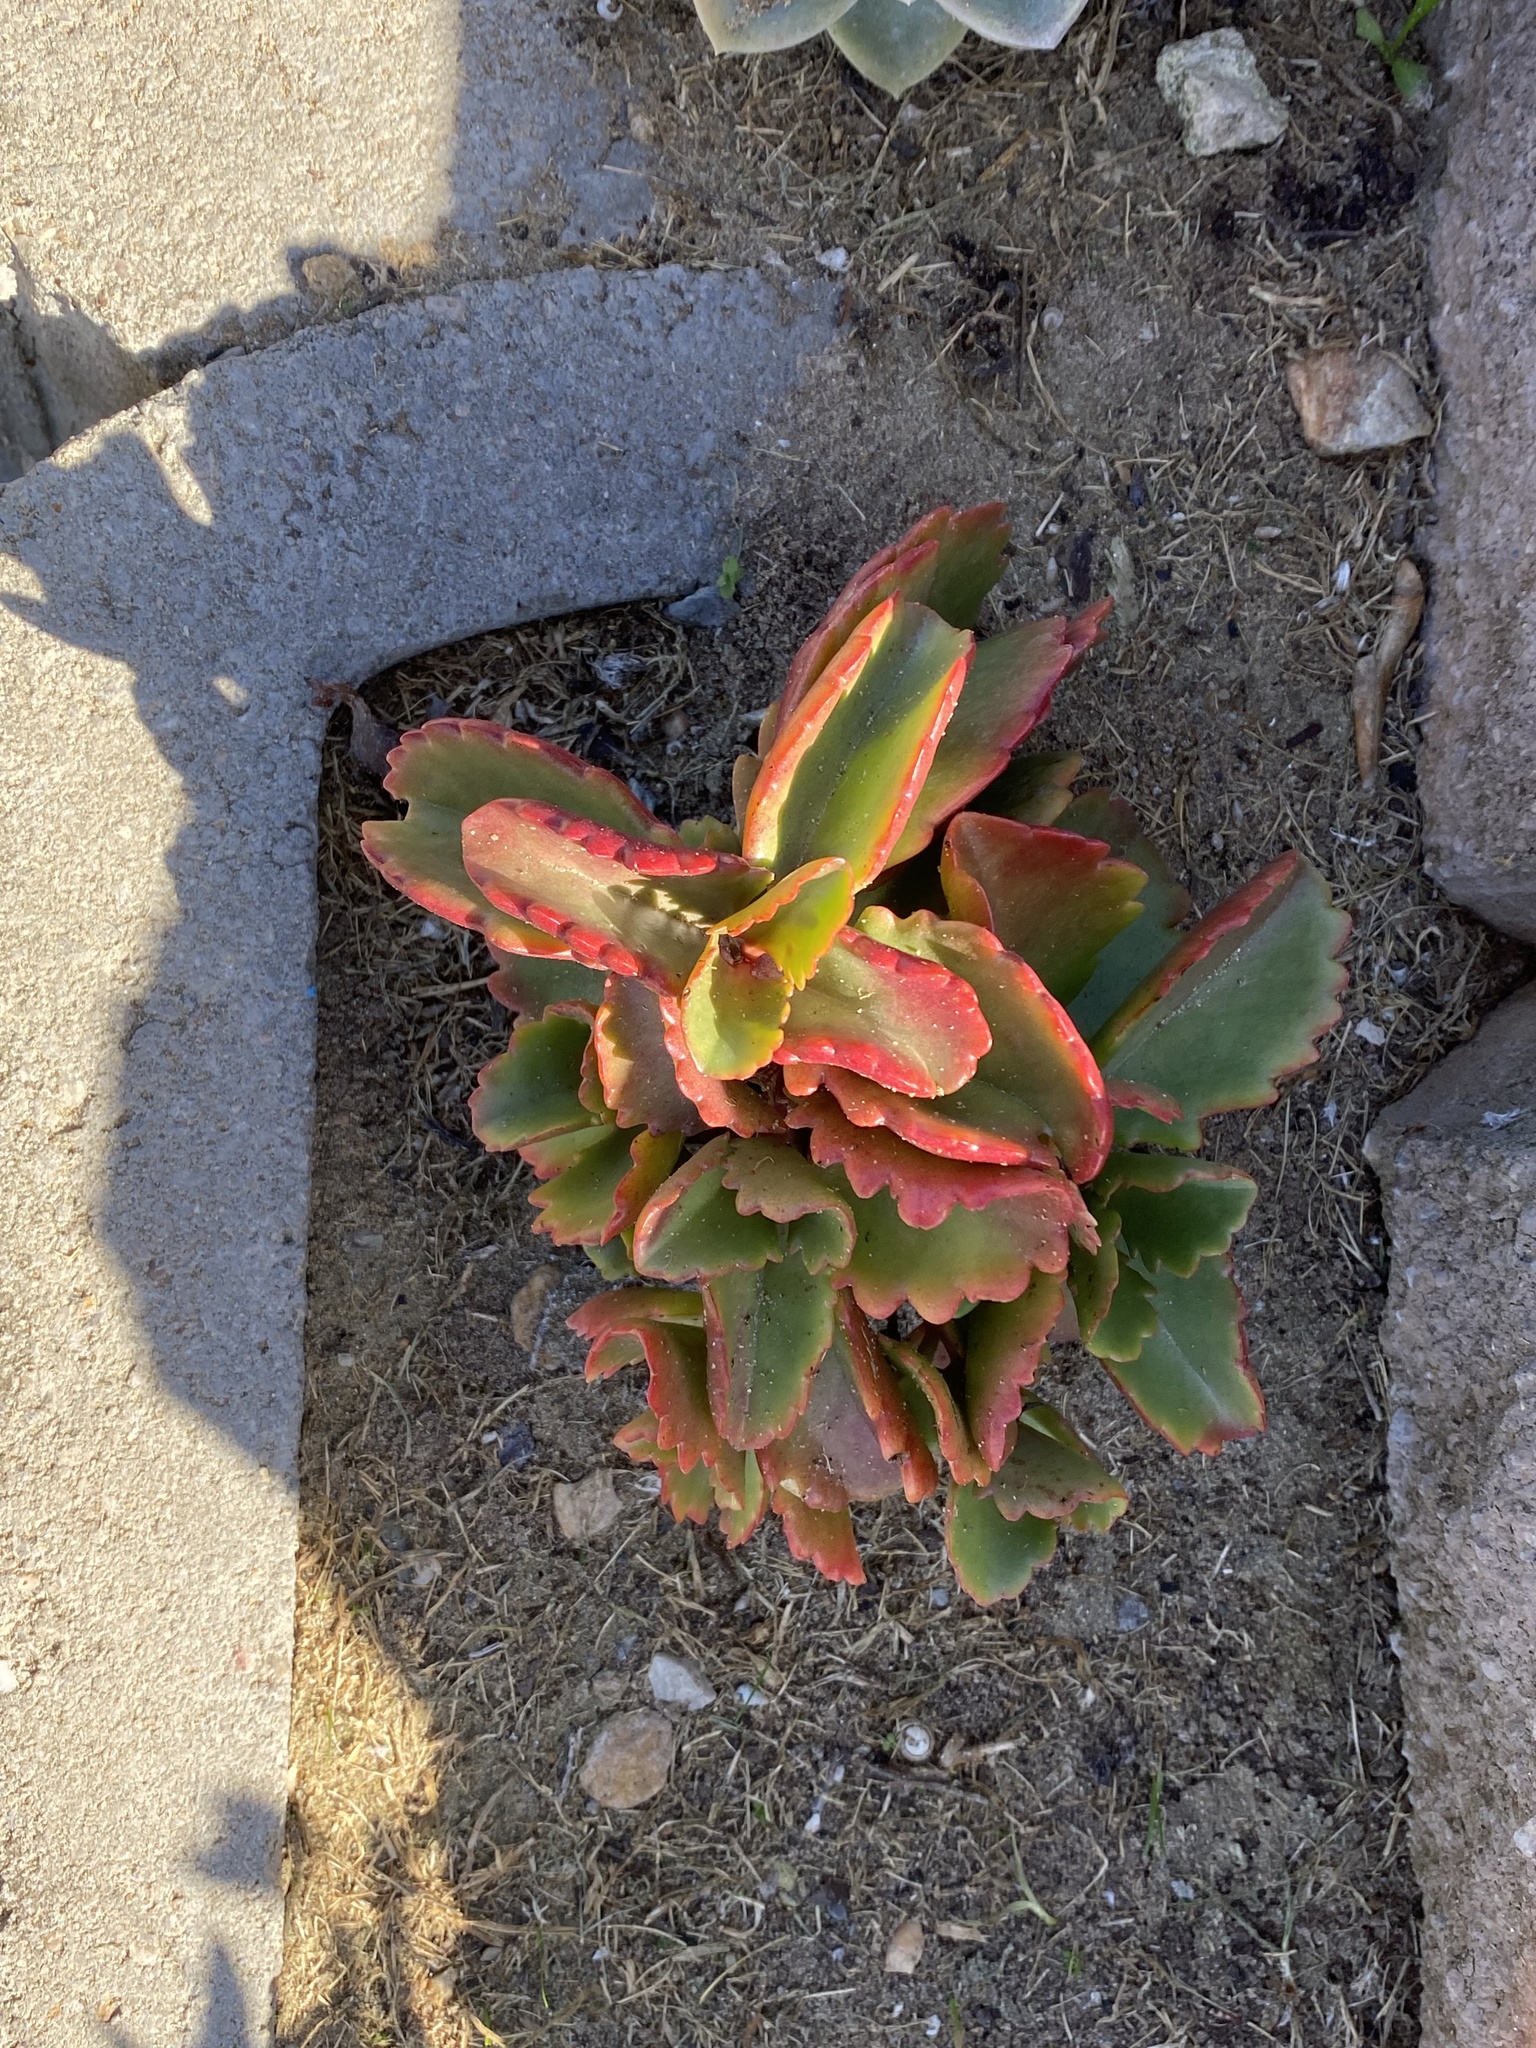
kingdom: Plantae
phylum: Tracheophyta
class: Magnoliopsida
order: Saxifragales
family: Crassulaceae
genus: Kalanchoe
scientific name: Kalanchoe sexangularis
